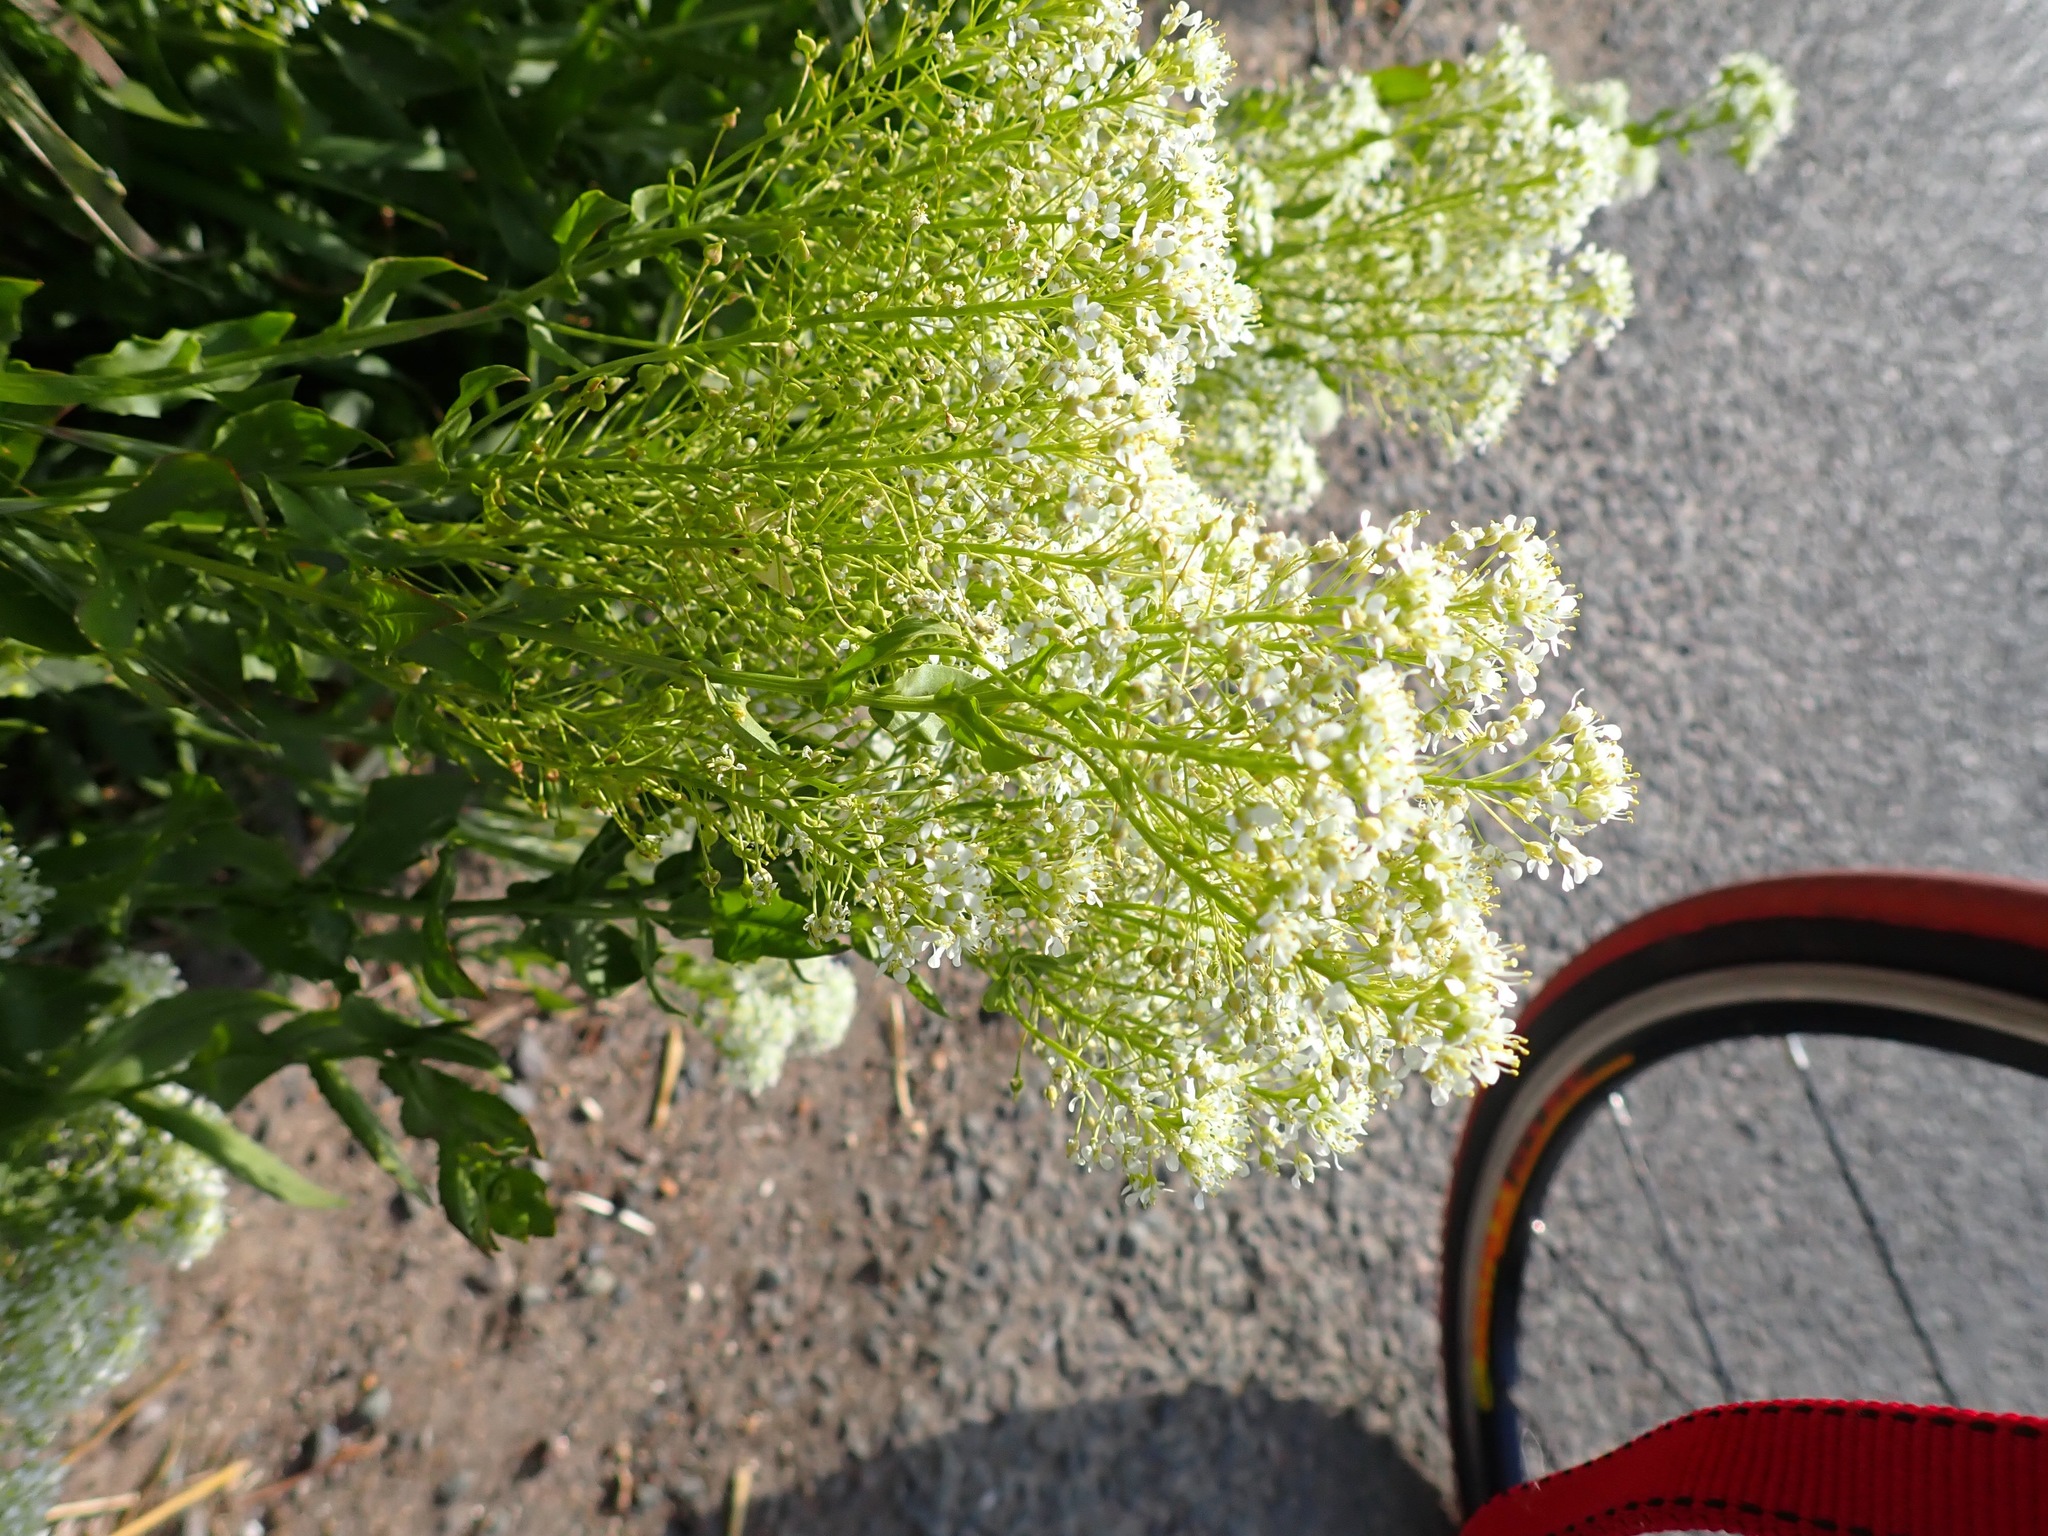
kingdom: Plantae
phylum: Tracheophyta
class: Magnoliopsida
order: Brassicales
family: Brassicaceae
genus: Lepidium
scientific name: Lepidium draba
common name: Hoary cress
